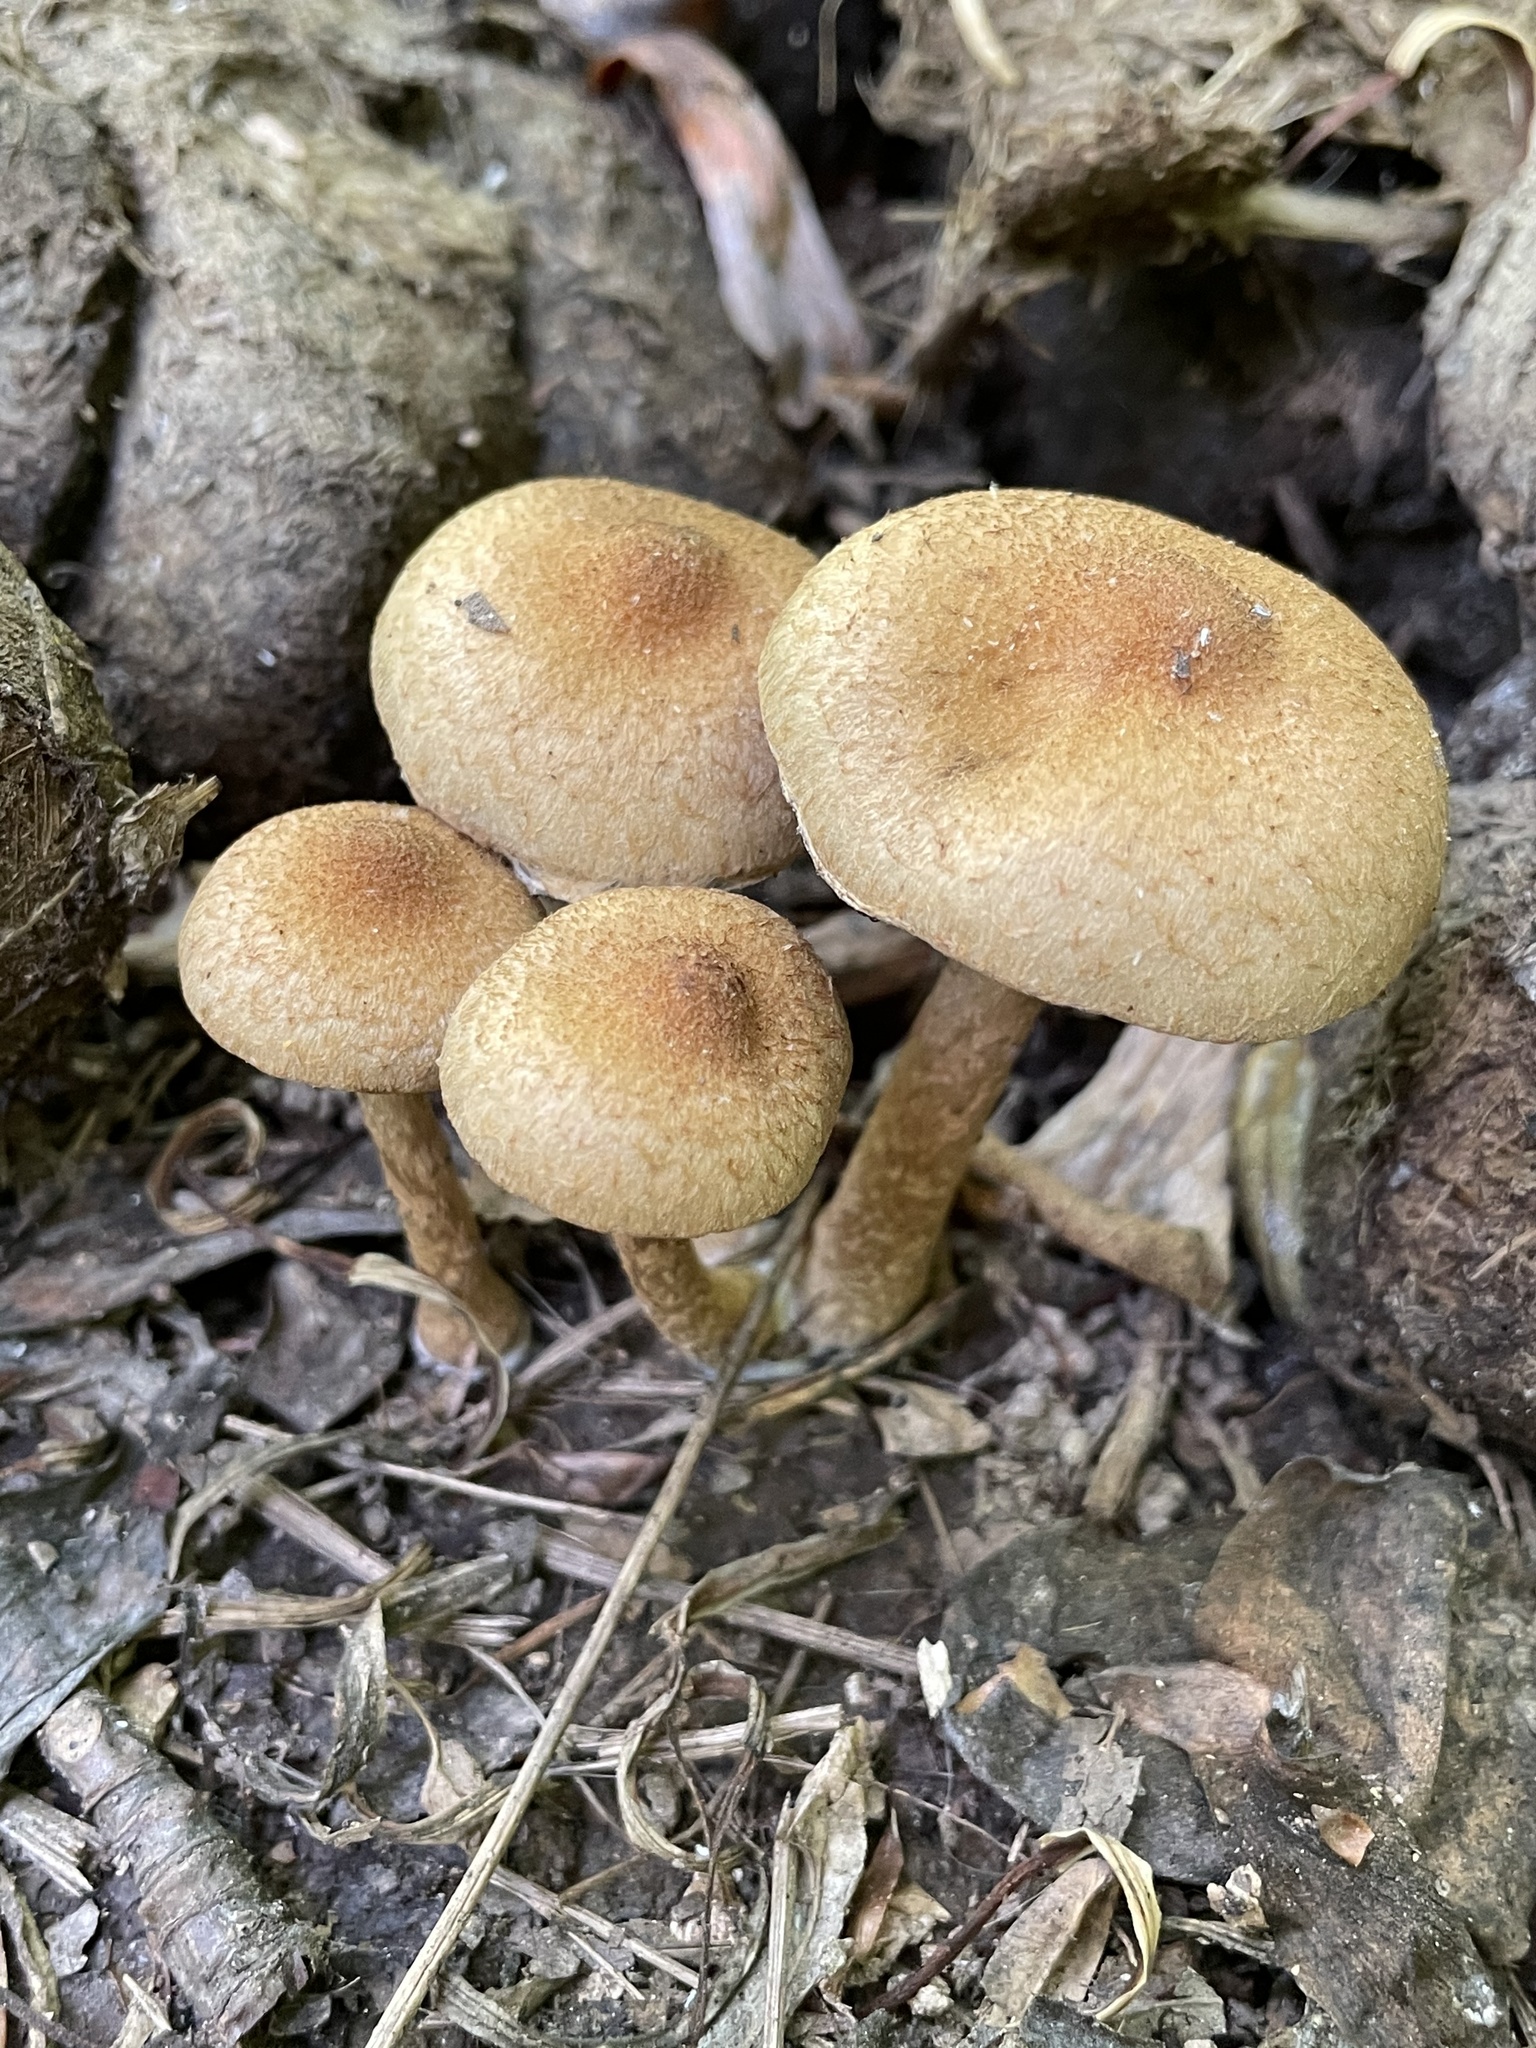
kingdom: Fungi
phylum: Basidiomycota
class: Agaricomycetes
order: Agaricales
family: Psathyrellaceae
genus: Lacrymaria
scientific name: Lacrymaria lacrymabunda
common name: Weeping widow
